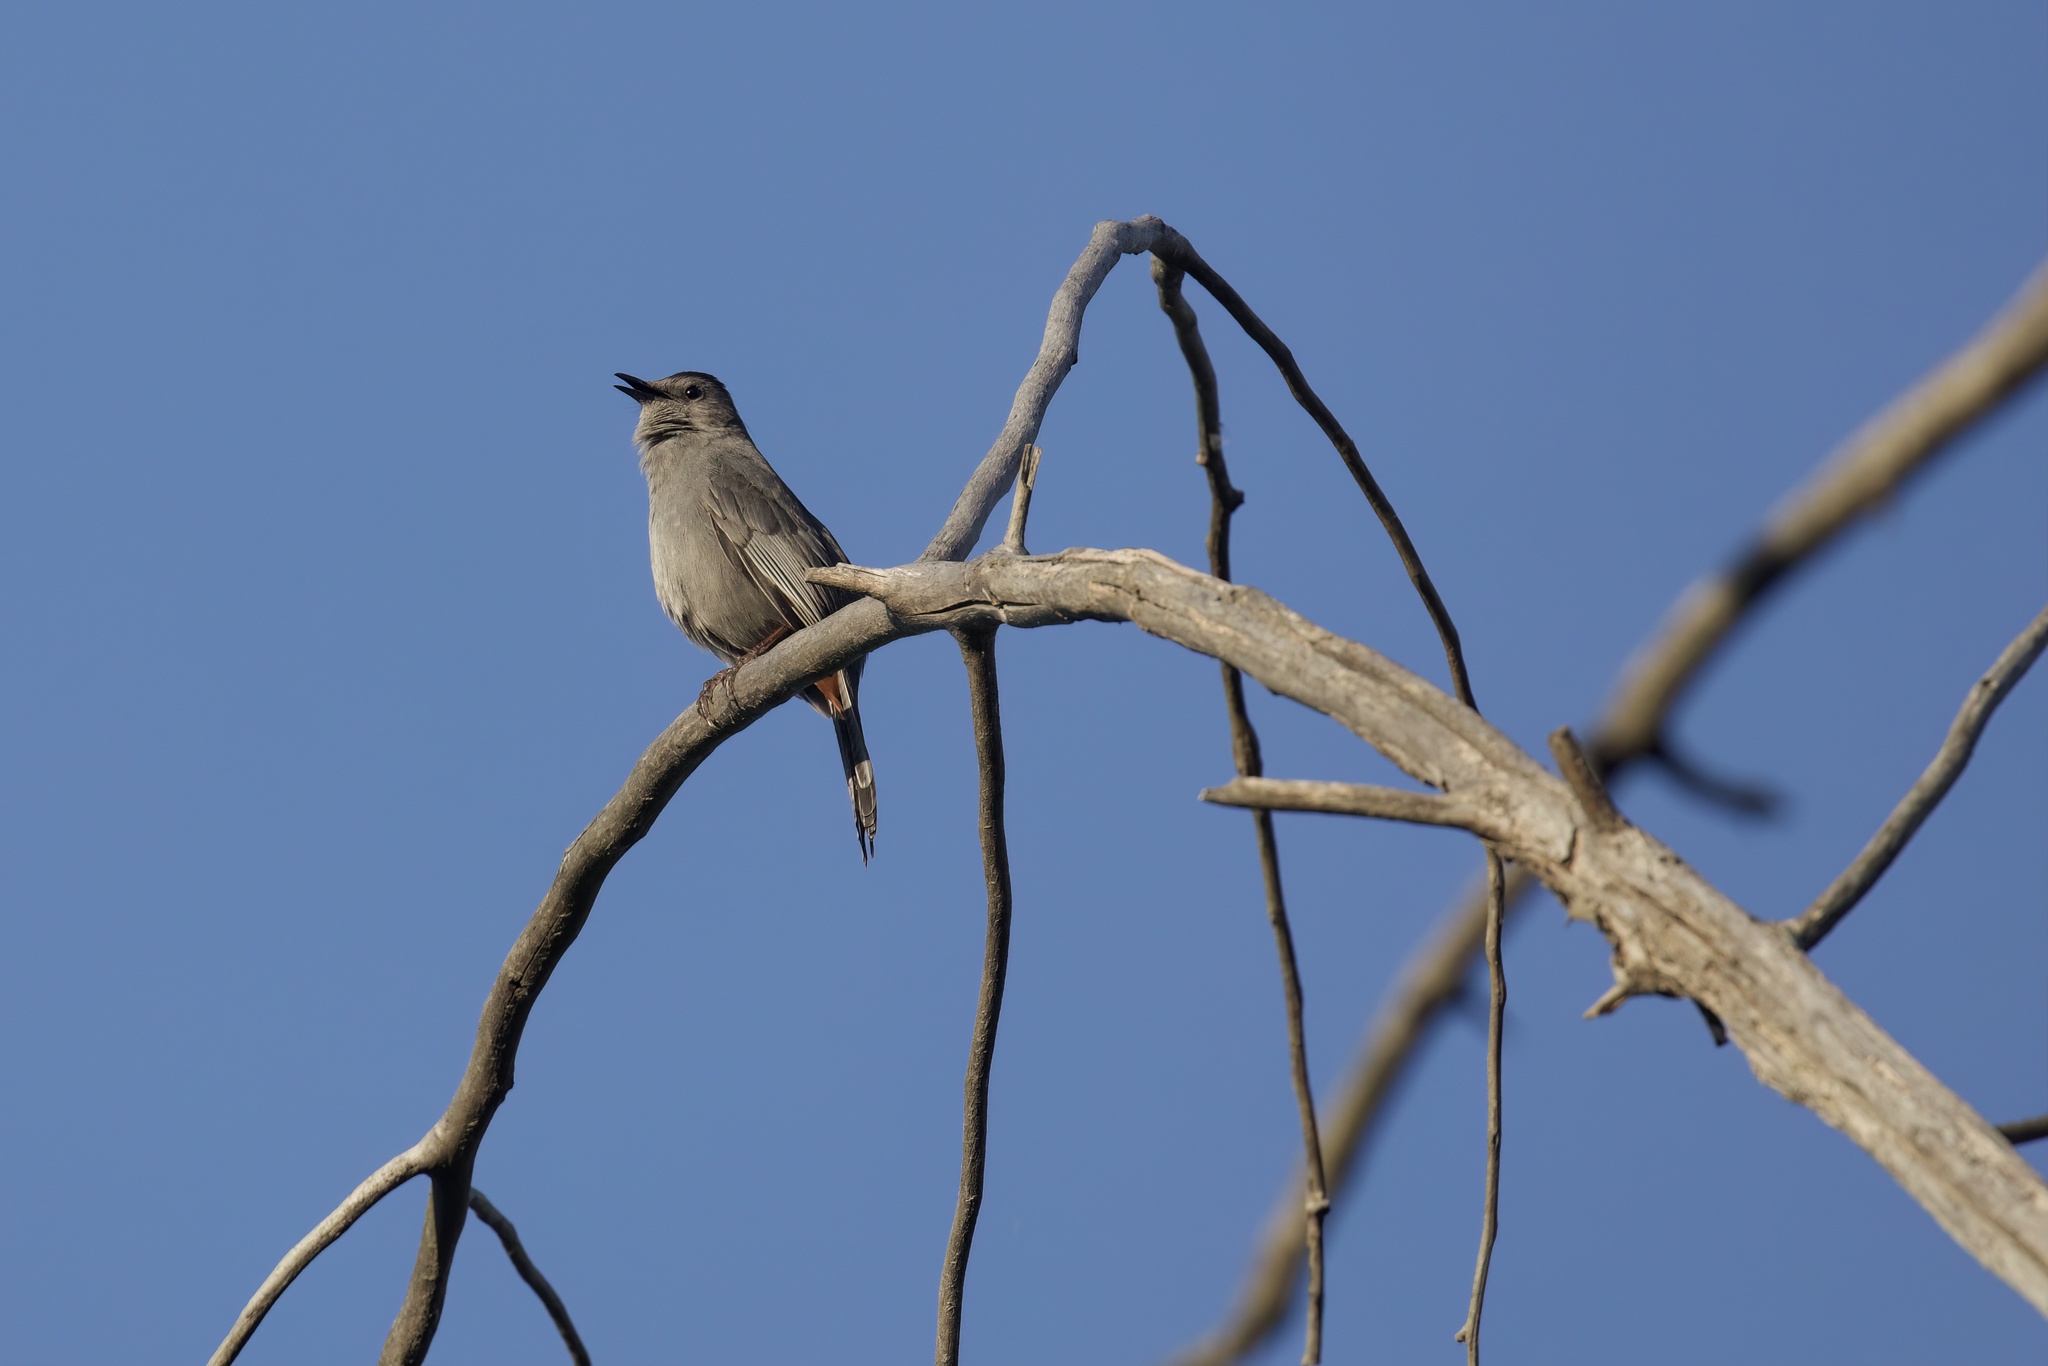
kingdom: Animalia
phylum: Chordata
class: Aves
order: Passeriformes
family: Mimidae
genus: Dumetella
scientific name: Dumetella carolinensis
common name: Gray catbird
